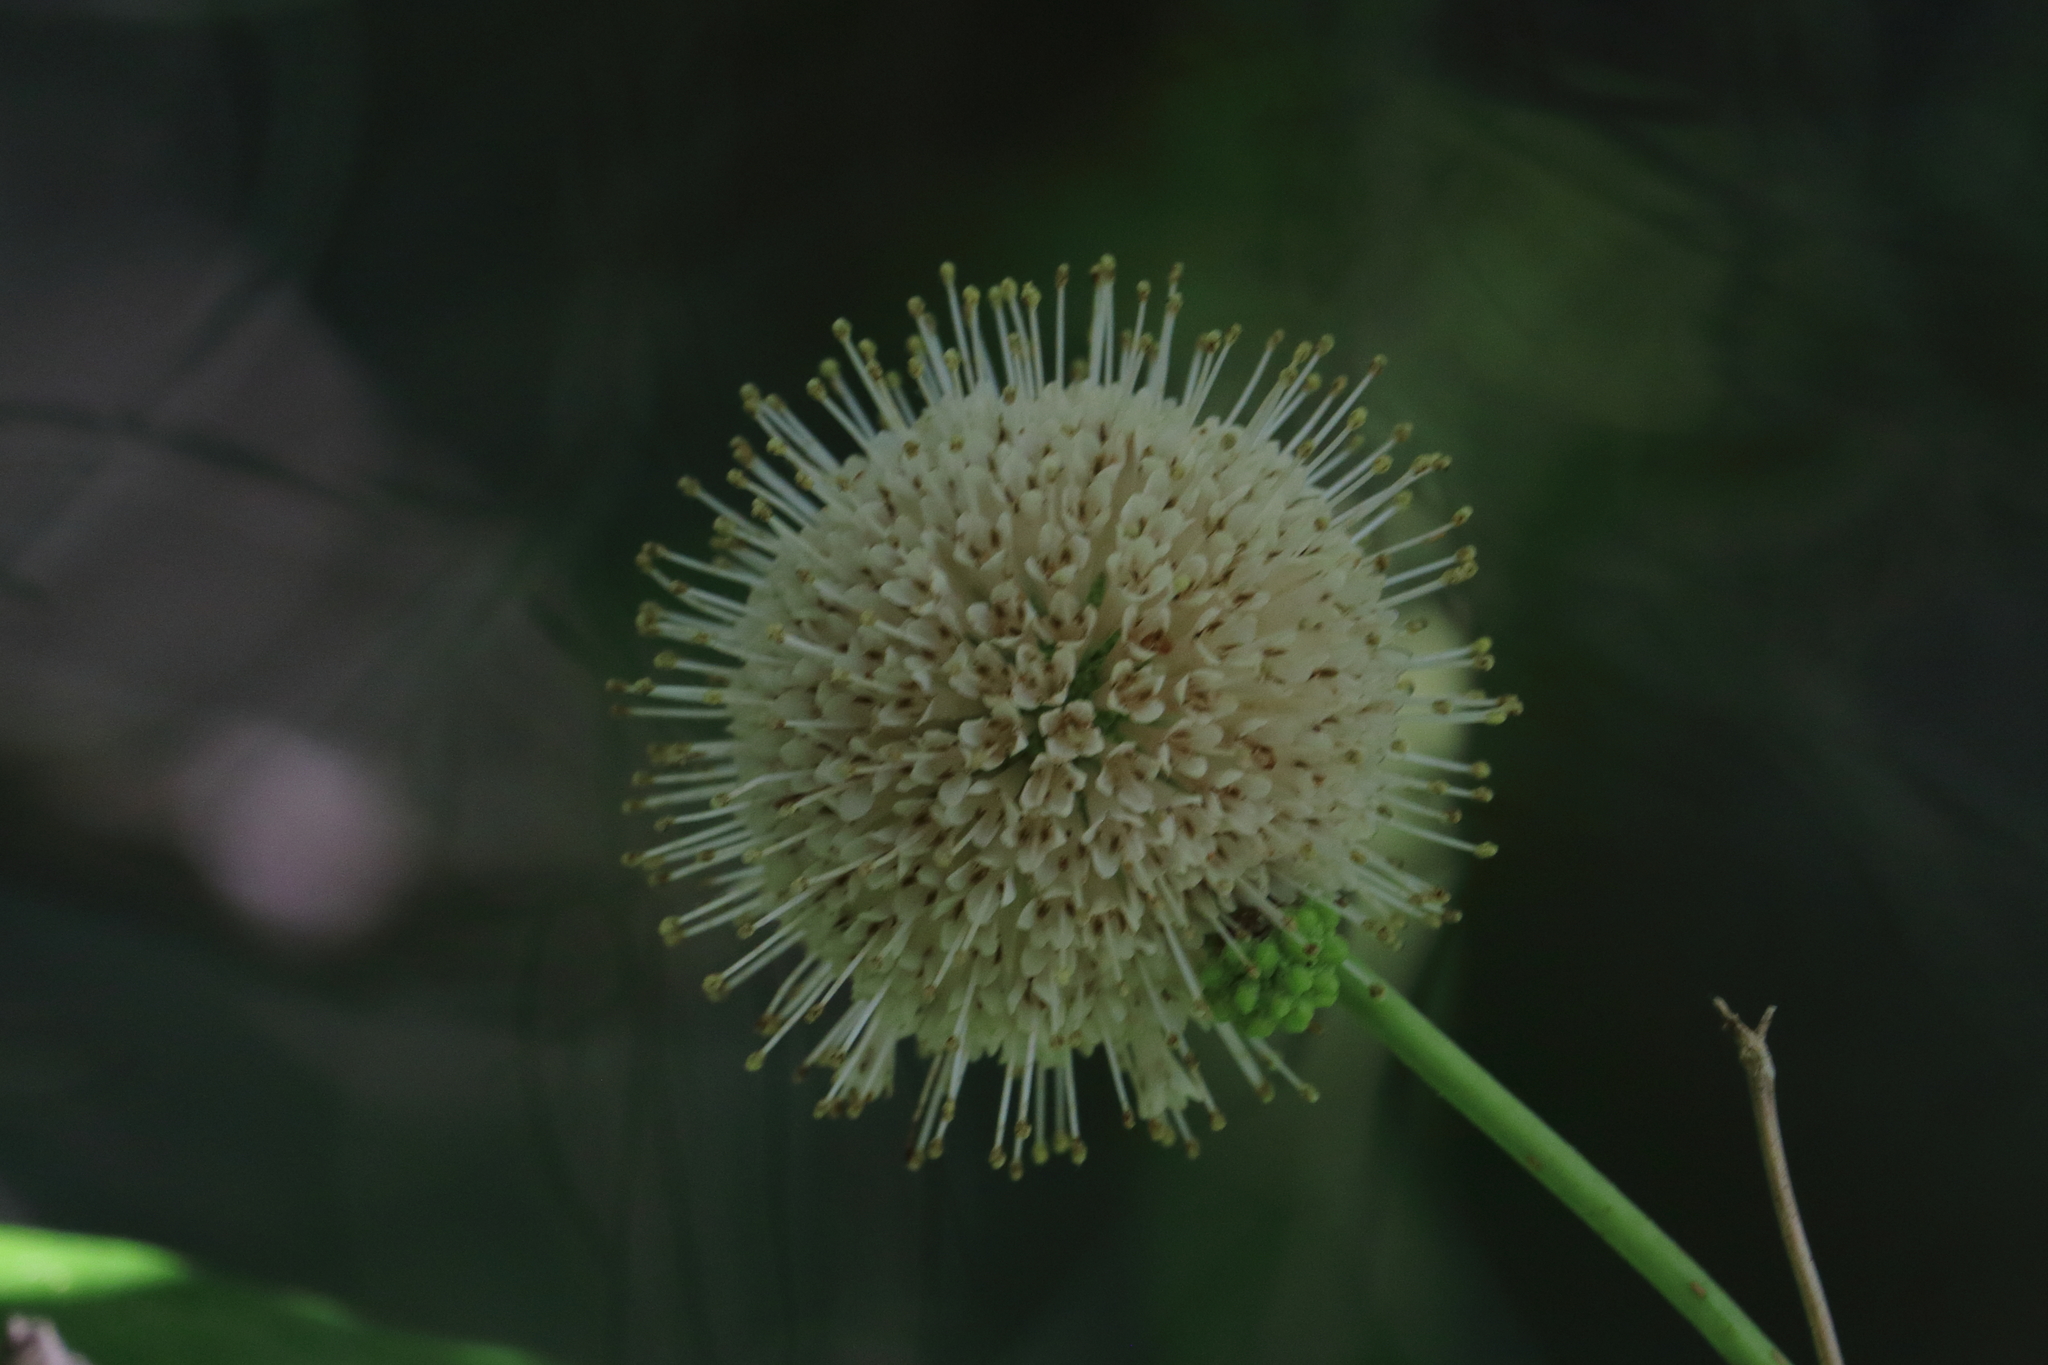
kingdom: Plantae
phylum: Tracheophyta
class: Magnoliopsida
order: Gentianales
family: Rubiaceae
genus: Cephalanthus
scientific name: Cephalanthus occidentalis
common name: Button-willow
